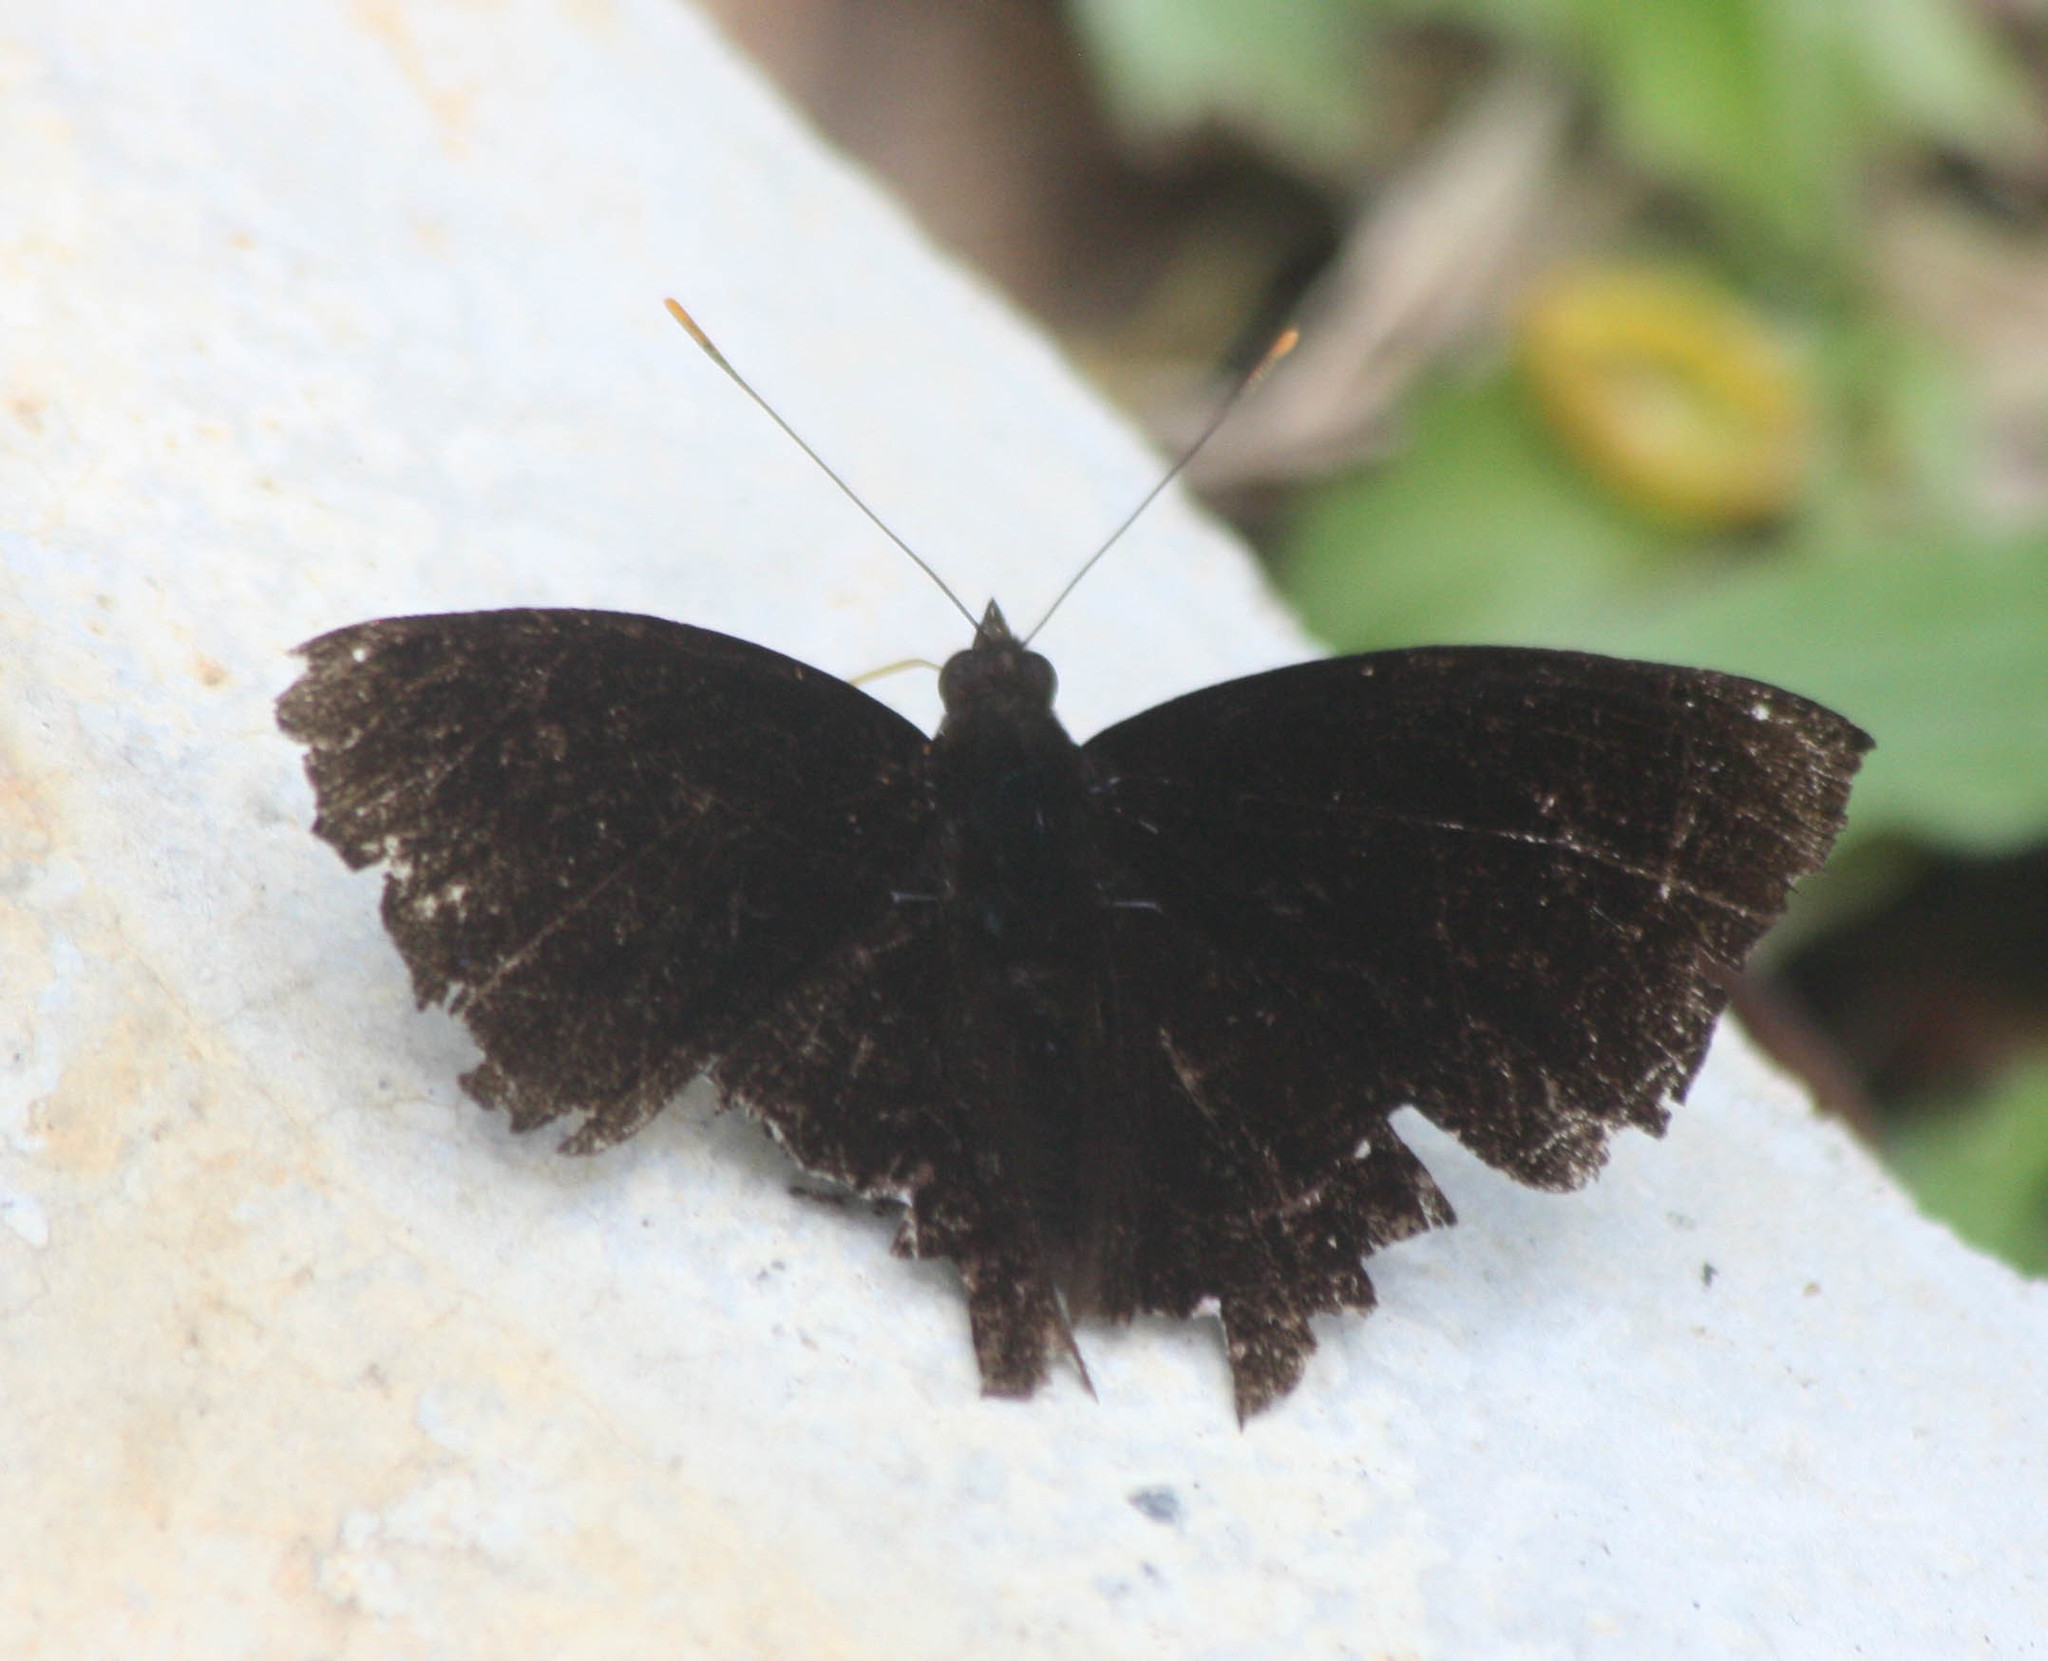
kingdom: Animalia
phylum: Arthropoda
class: Insecta
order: Lepidoptera
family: Nymphalidae
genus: Apatura
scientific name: Apatura Rohana spec
